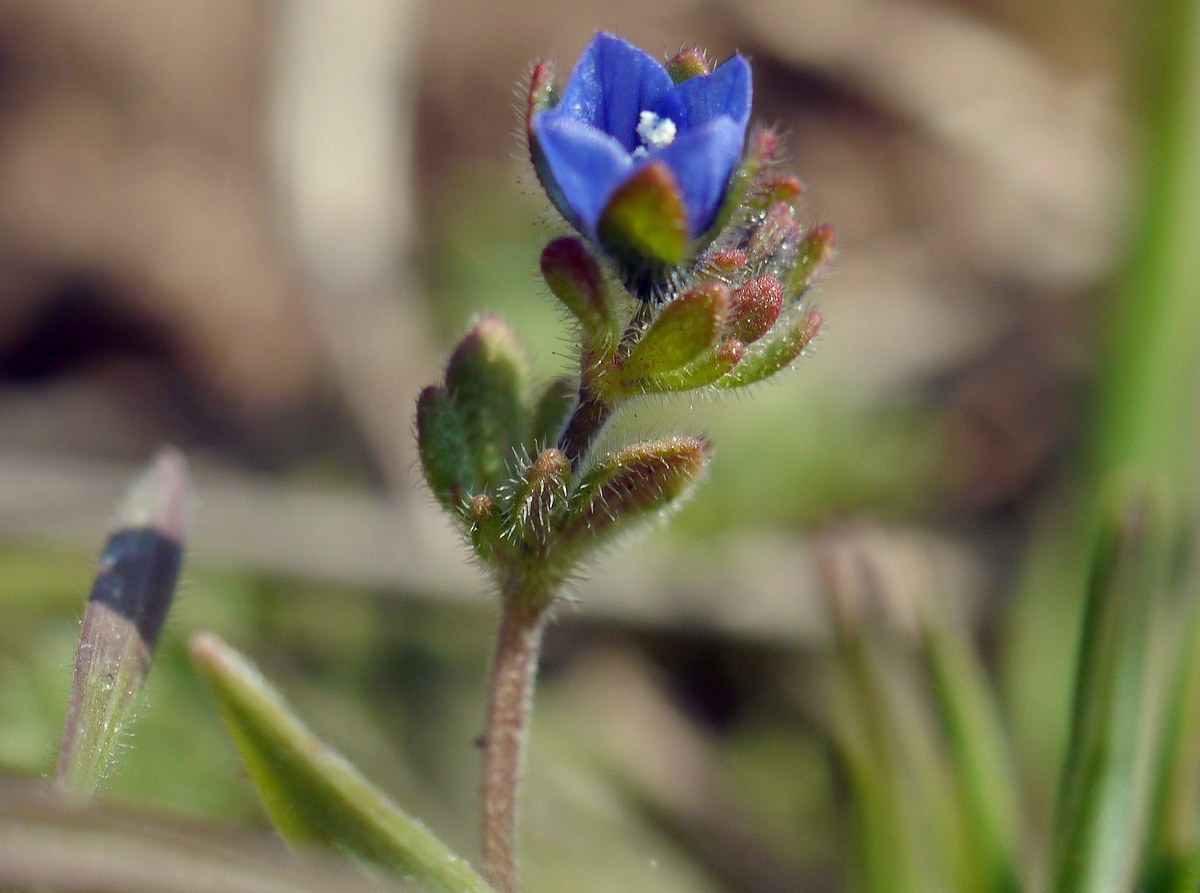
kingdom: Plantae
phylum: Tracheophyta
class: Magnoliopsida
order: Lamiales
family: Plantaginaceae
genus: Veronica
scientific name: Veronica triphyllos
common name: Fingered speedwell
